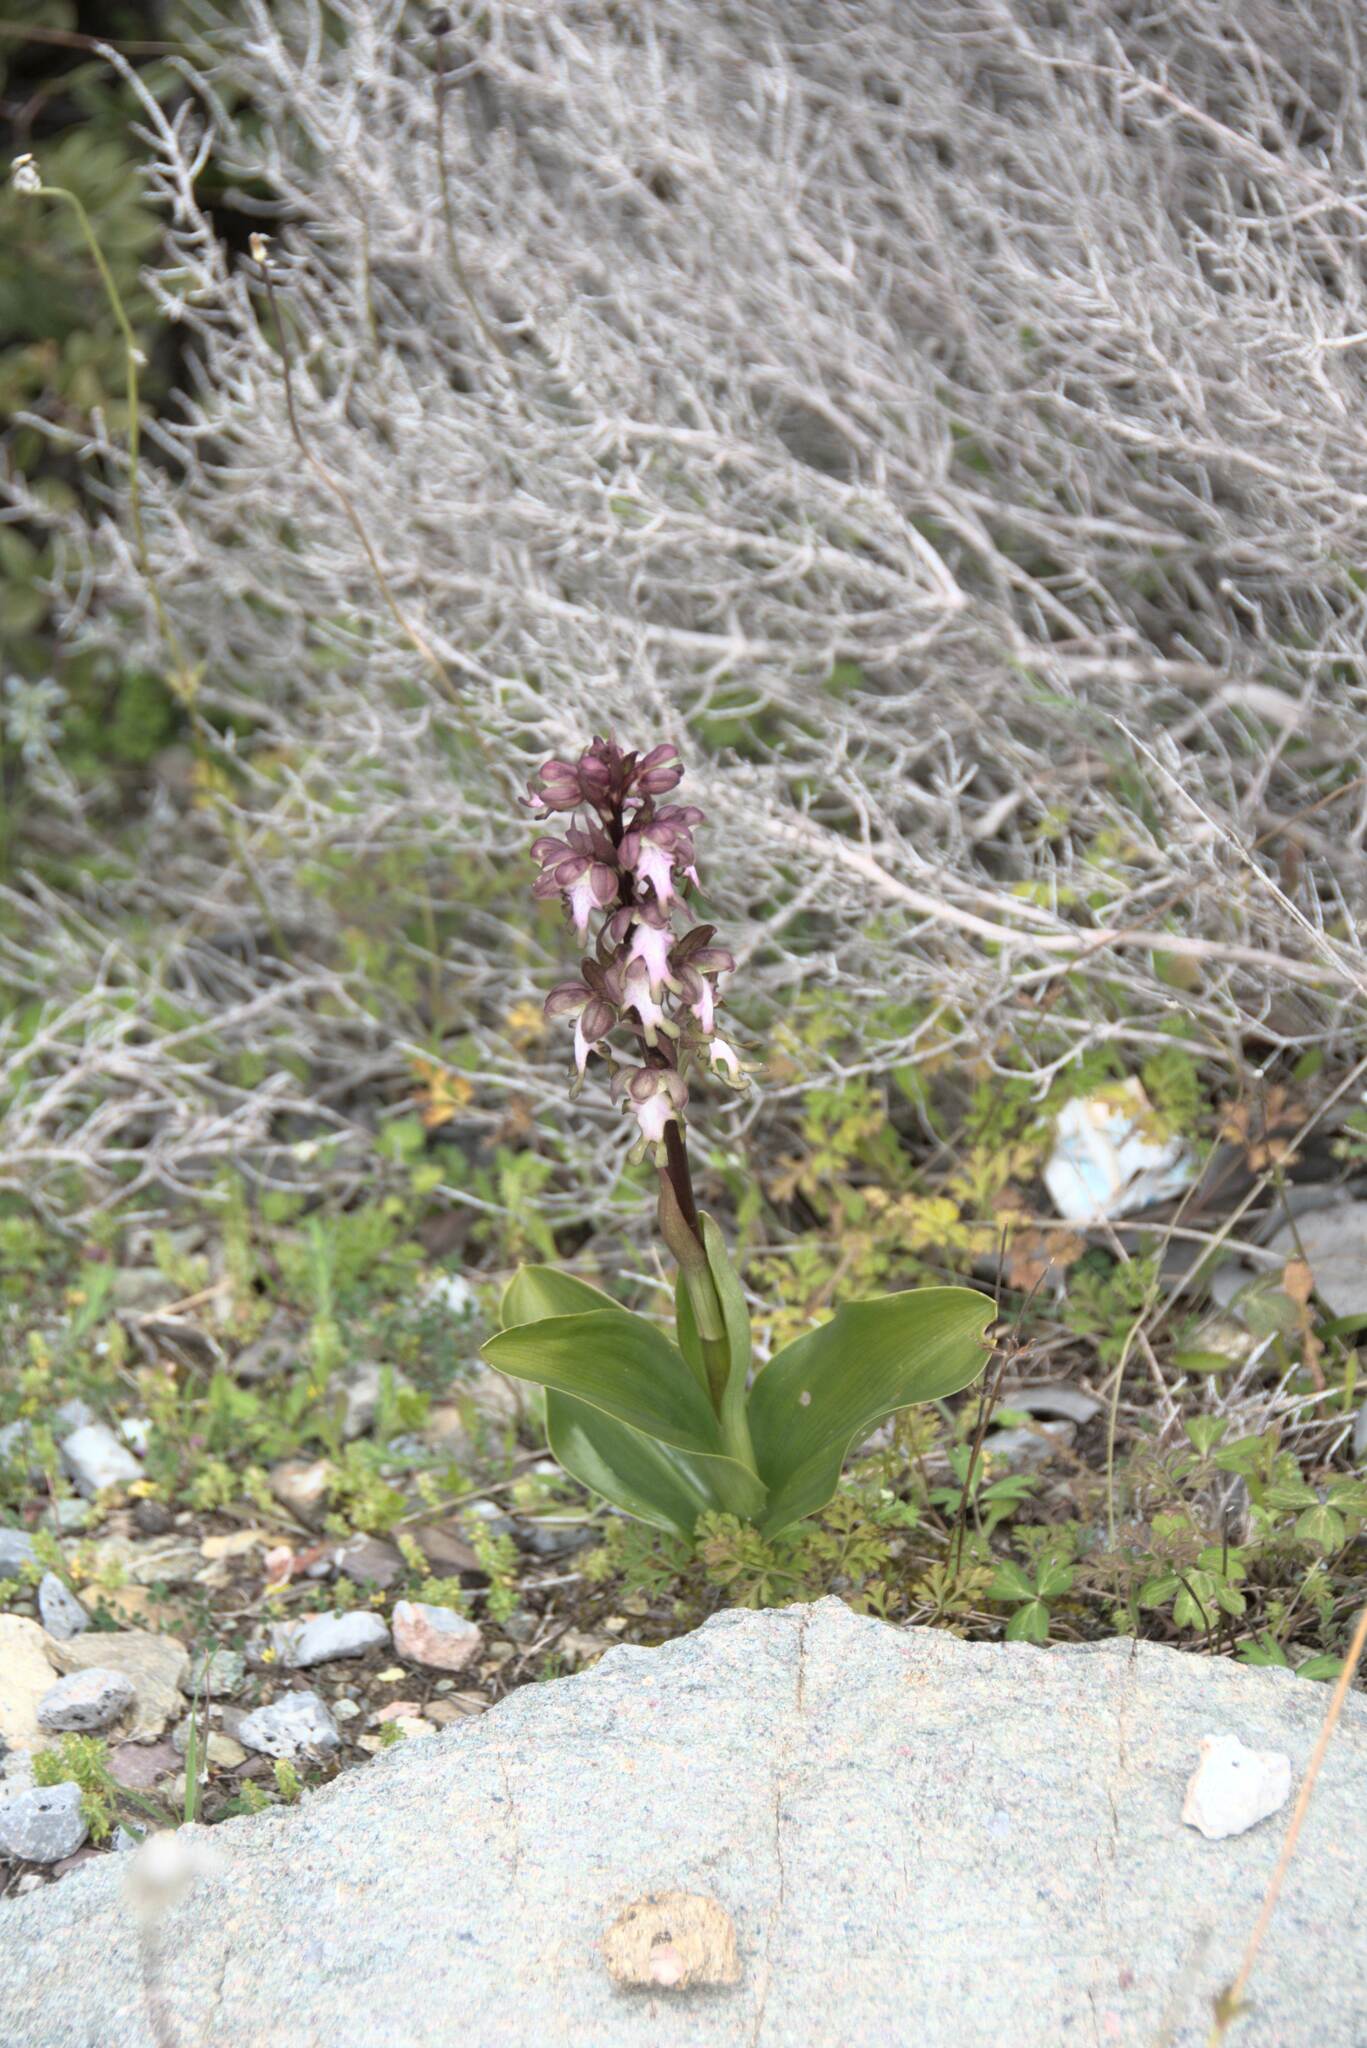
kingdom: Plantae
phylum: Tracheophyta
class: Liliopsida
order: Asparagales
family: Orchidaceae
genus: Himantoglossum
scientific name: Himantoglossum robertianum
